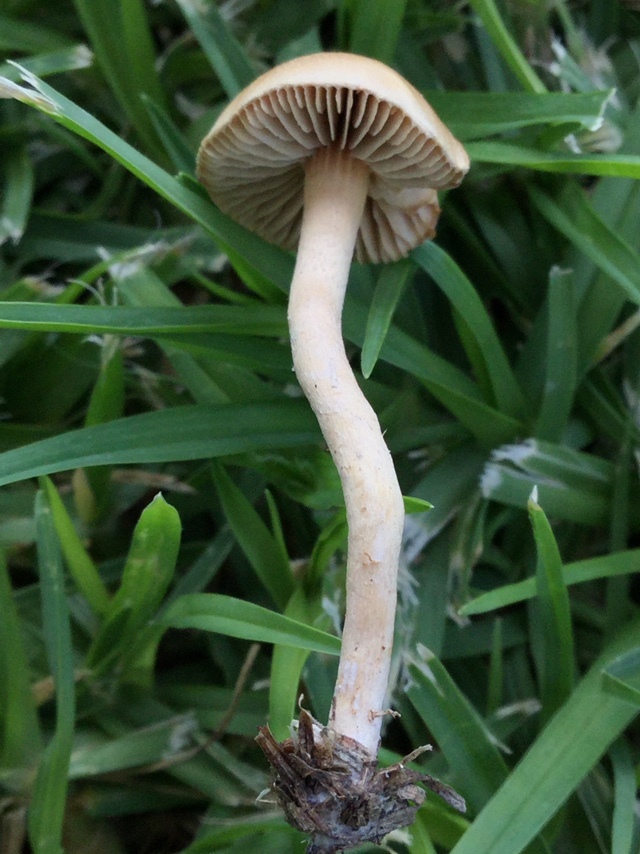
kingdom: Fungi
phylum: Basidiomycota
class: Agaricomycetes
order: Agaricales
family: Strophariaceae
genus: Agrocybe
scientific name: Agrocybe pediades
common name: Common fieldcap
